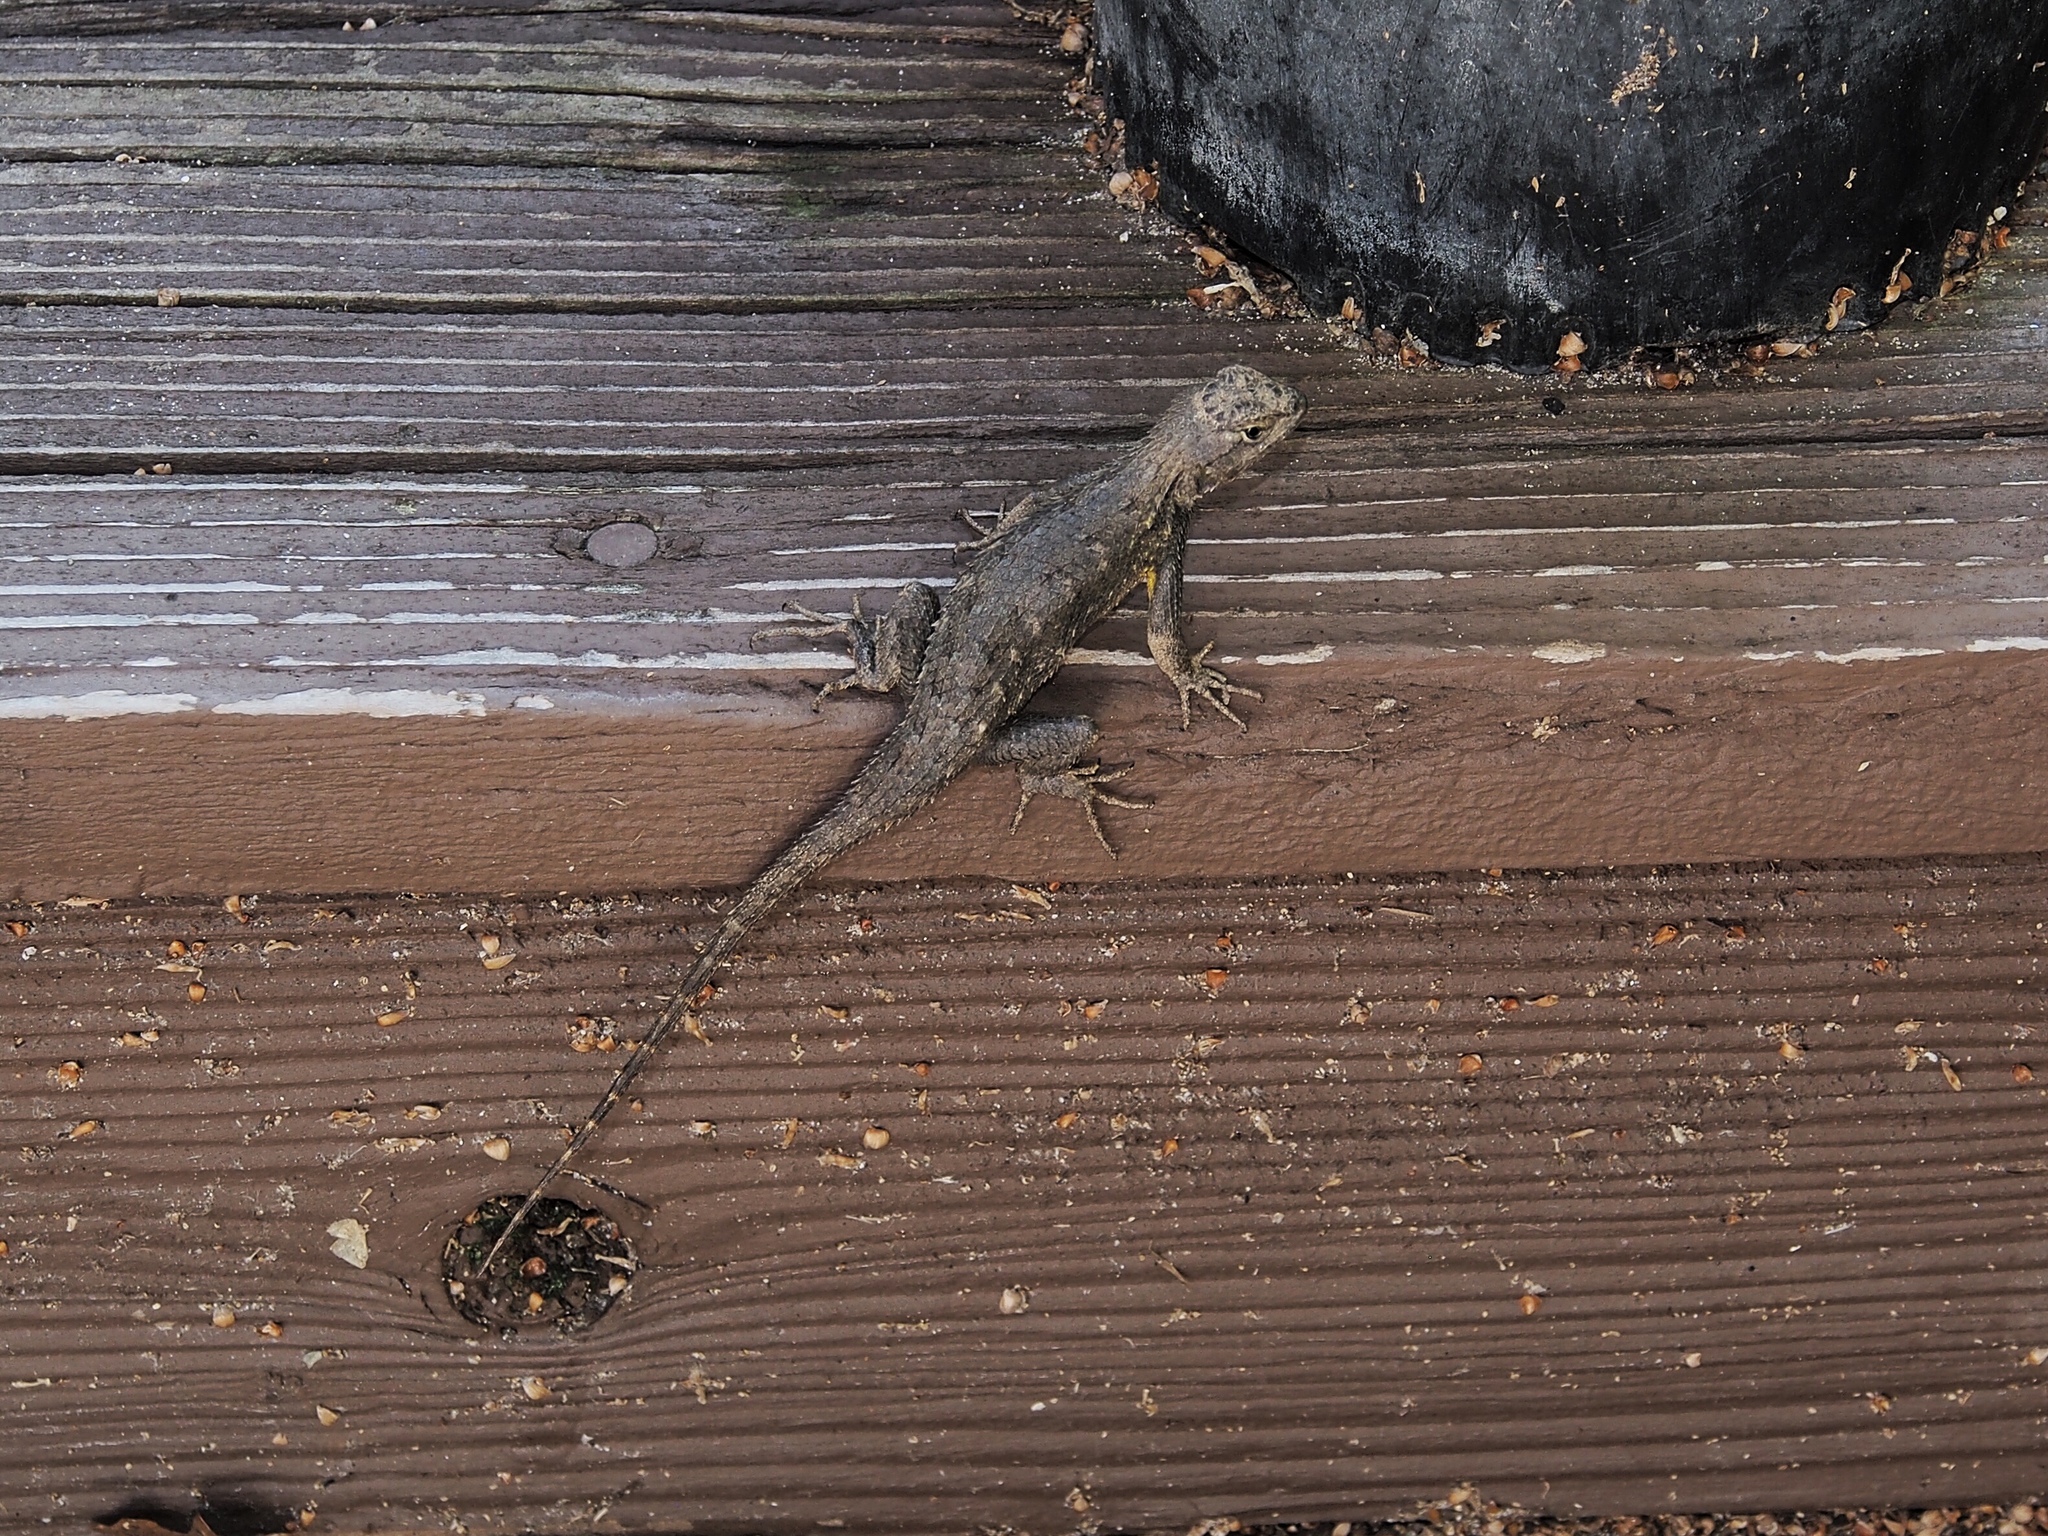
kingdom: Animalia
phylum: Chordata
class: Squamata
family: Phrynosomatidae
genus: Sceloporus
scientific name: Sceloporus occidentalis
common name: Western fence lizard
